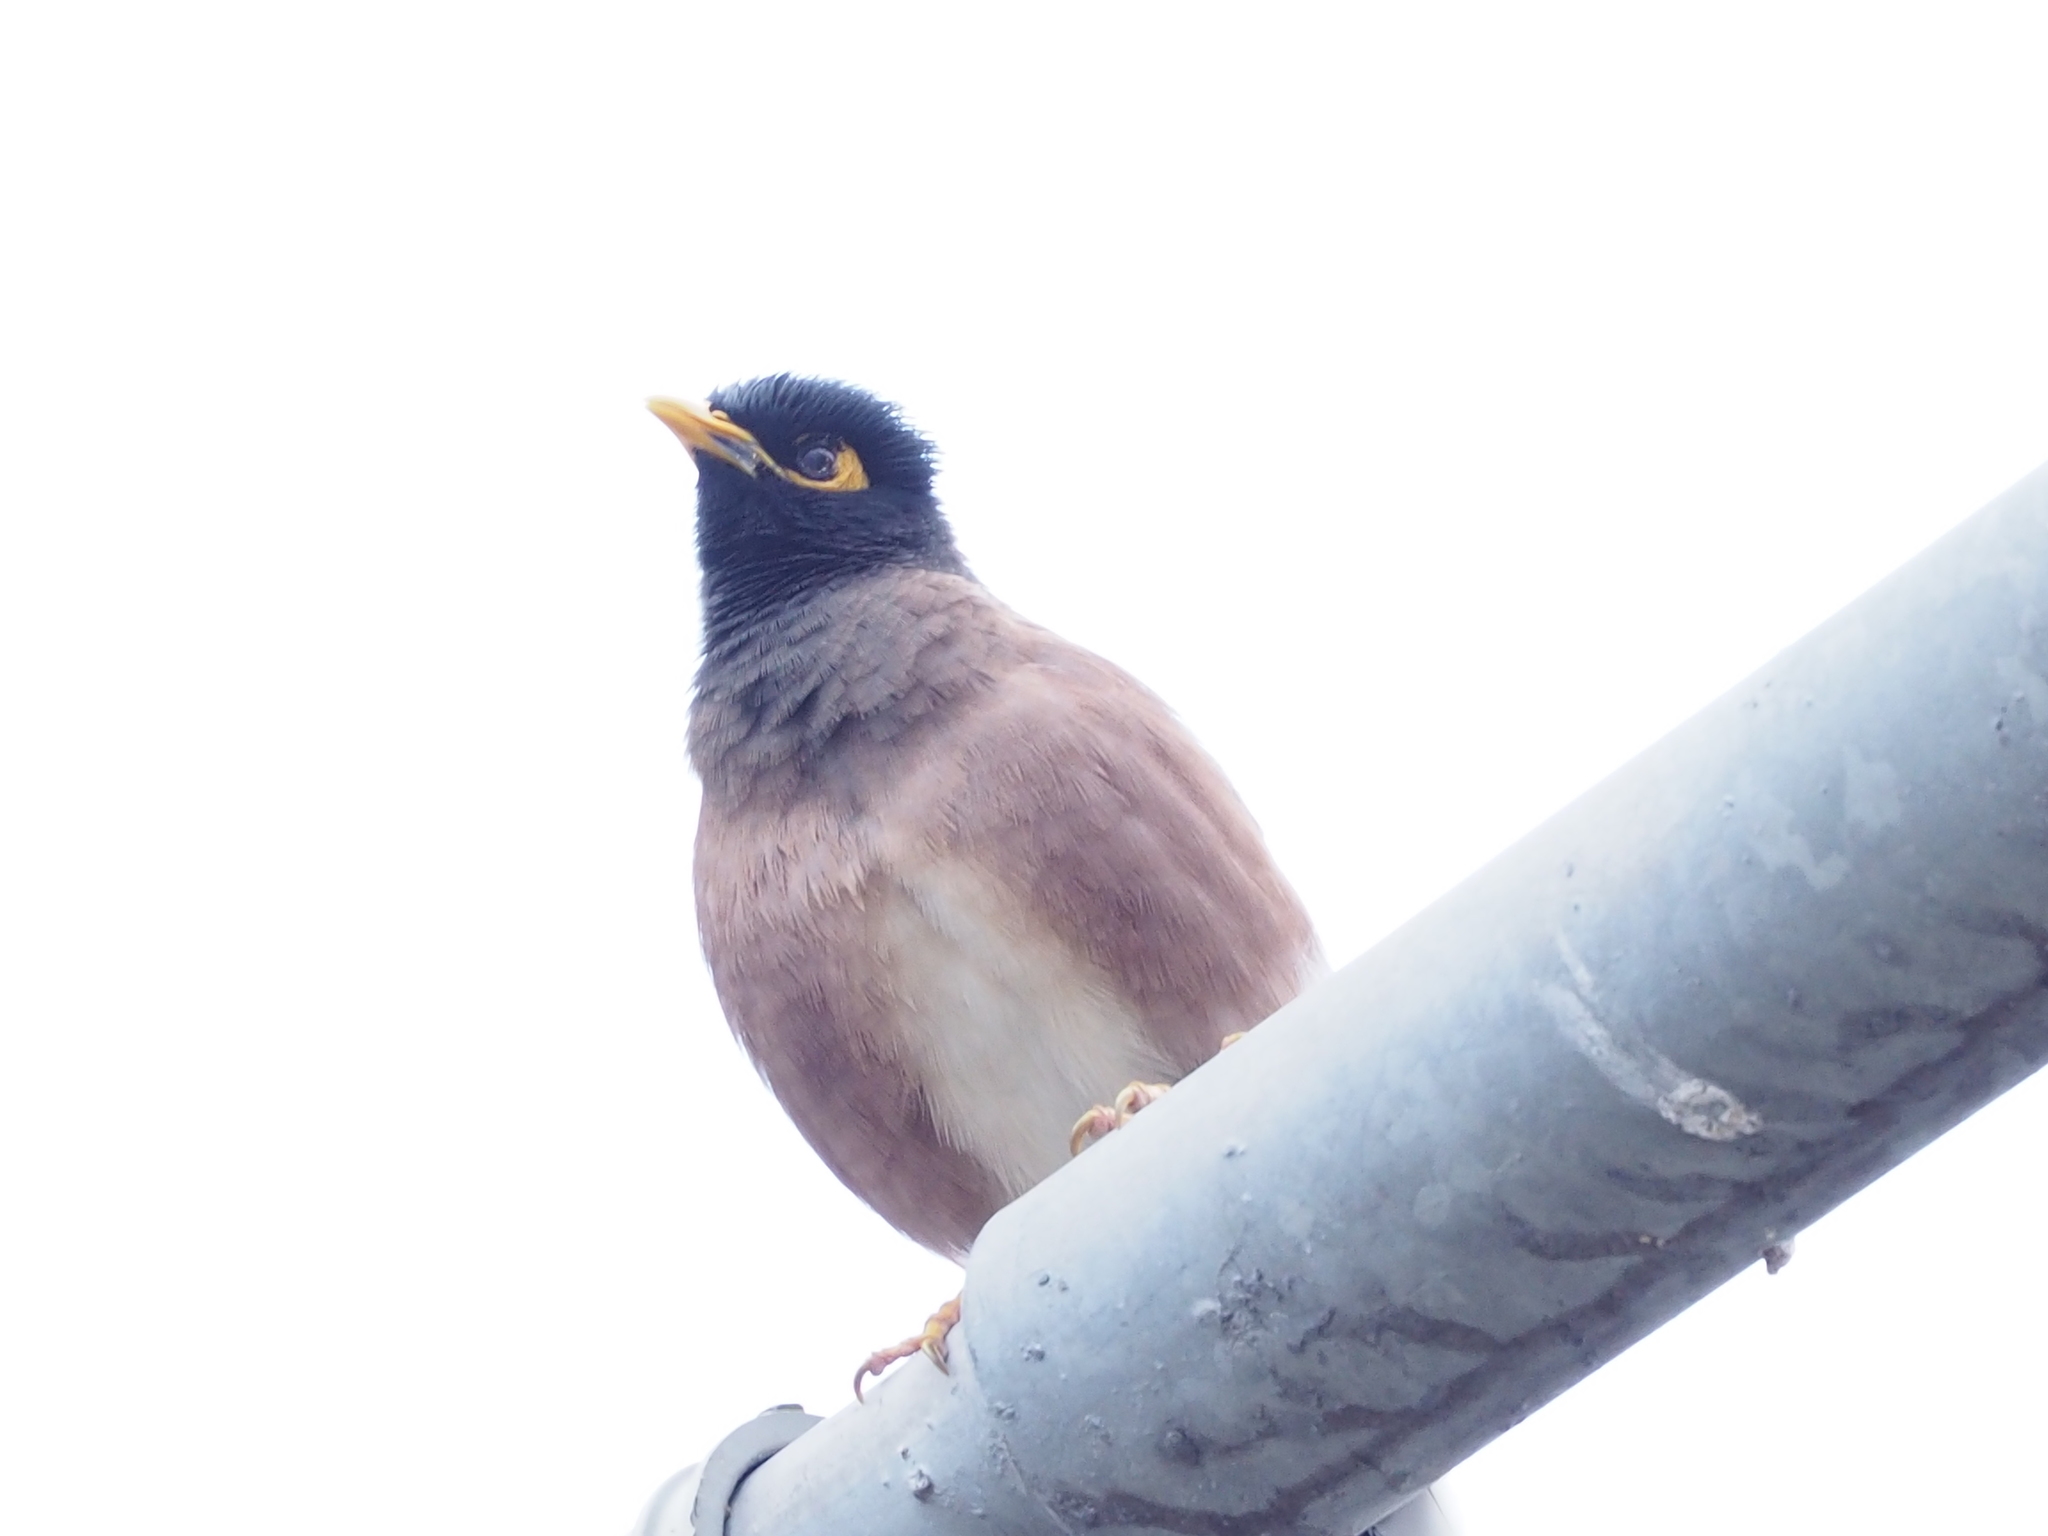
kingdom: Animalia
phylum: Chordata
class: Aves
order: Passeriformes
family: Sturnidae
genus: Acridotheres
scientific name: Acridotheres tristis
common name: Common myna
